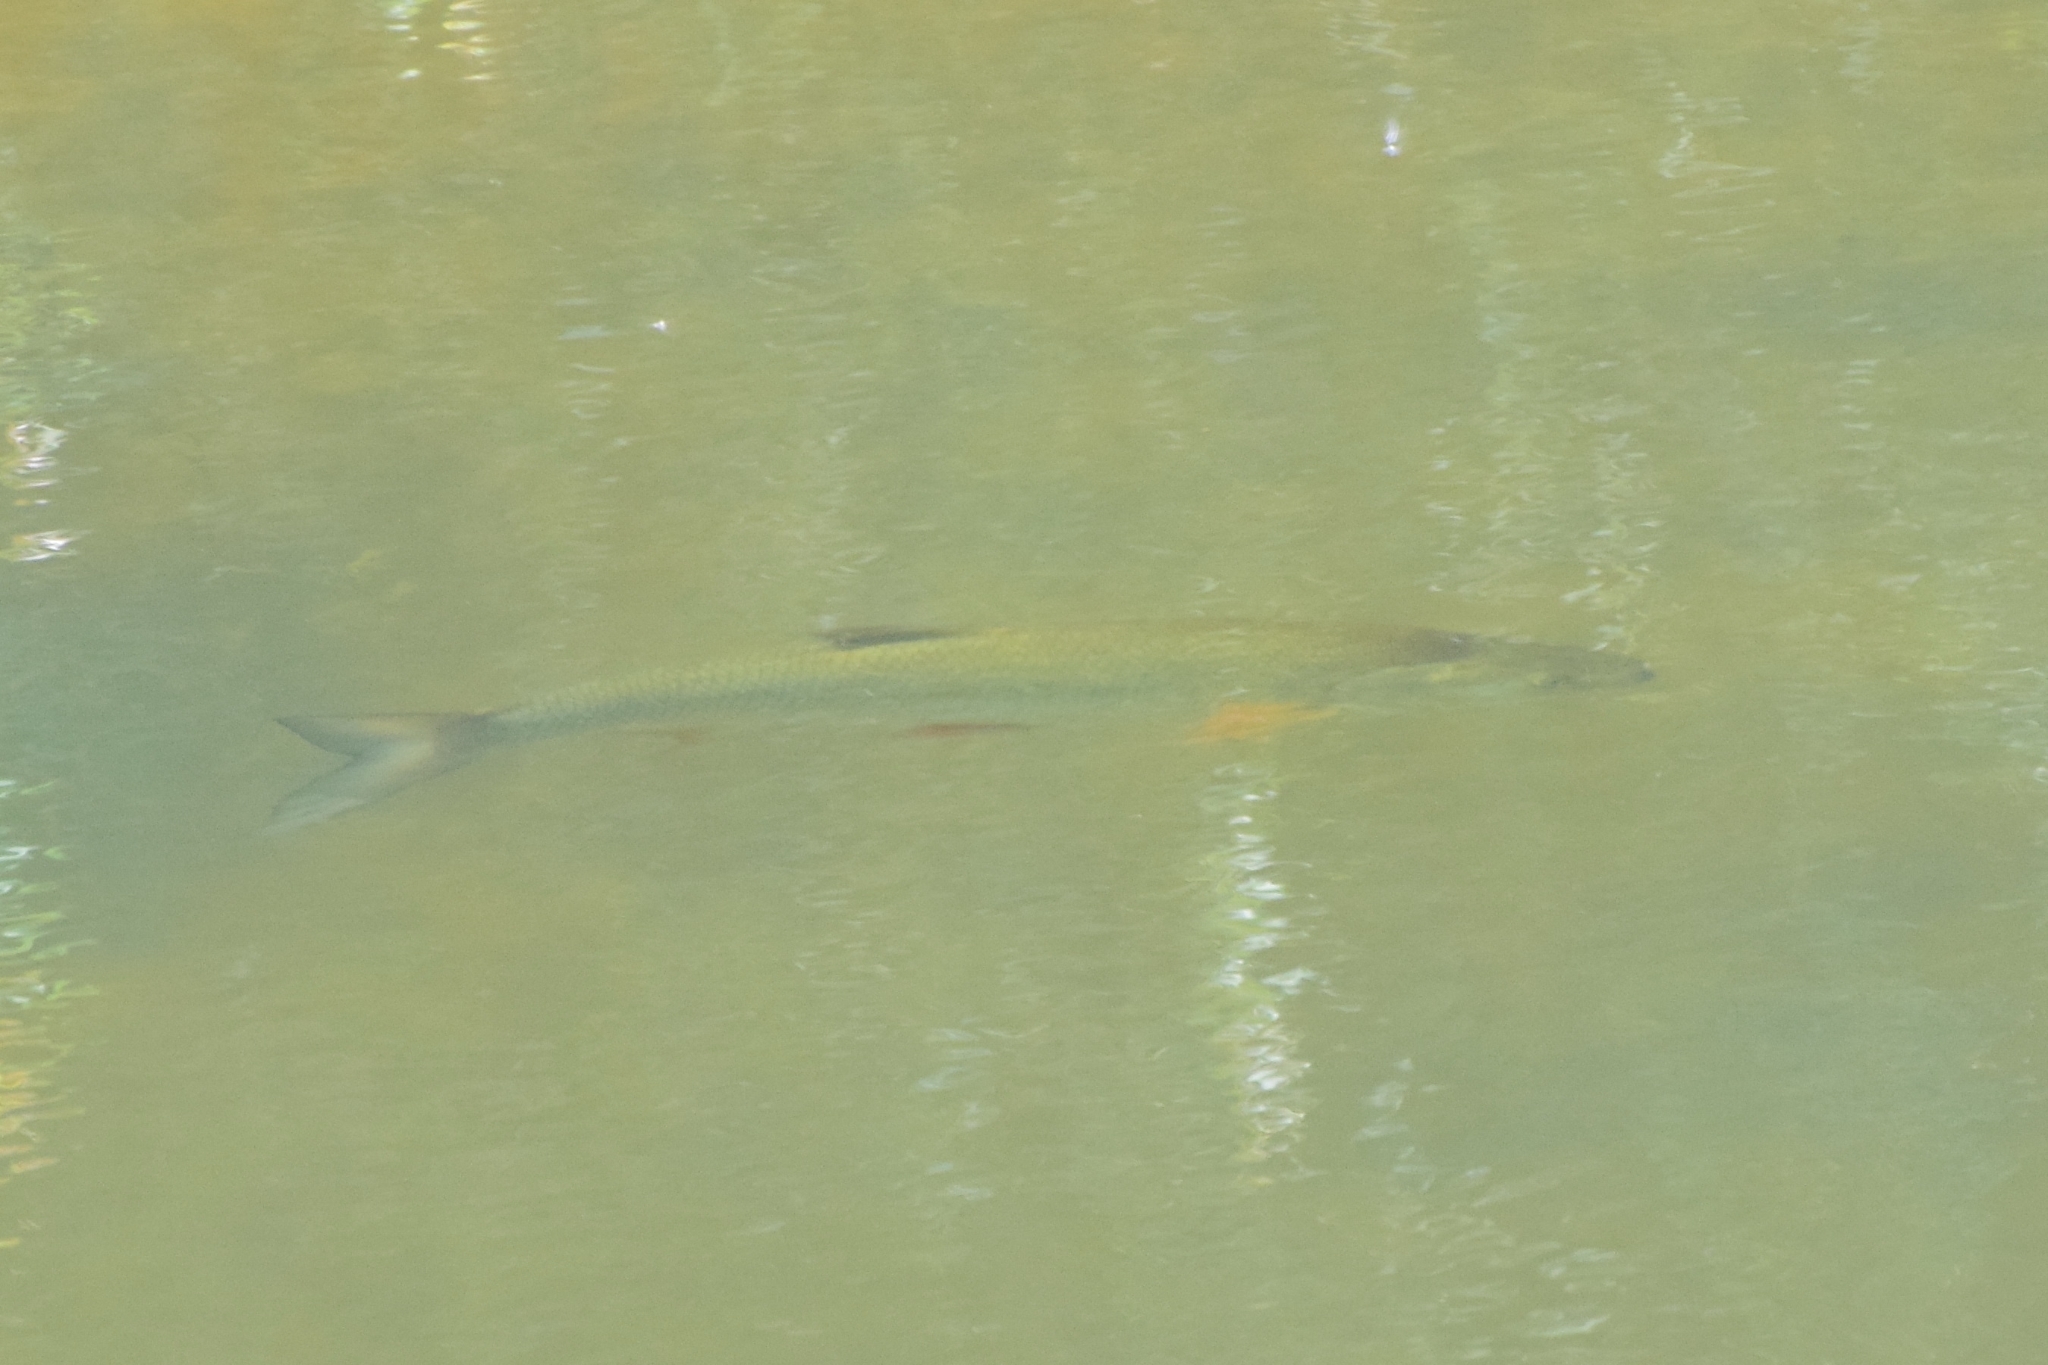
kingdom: Animalia
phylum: Chordata
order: Cypriniformes
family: Cyprinidae
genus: Leuciscus
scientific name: Leuciscus aspius
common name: Asp
